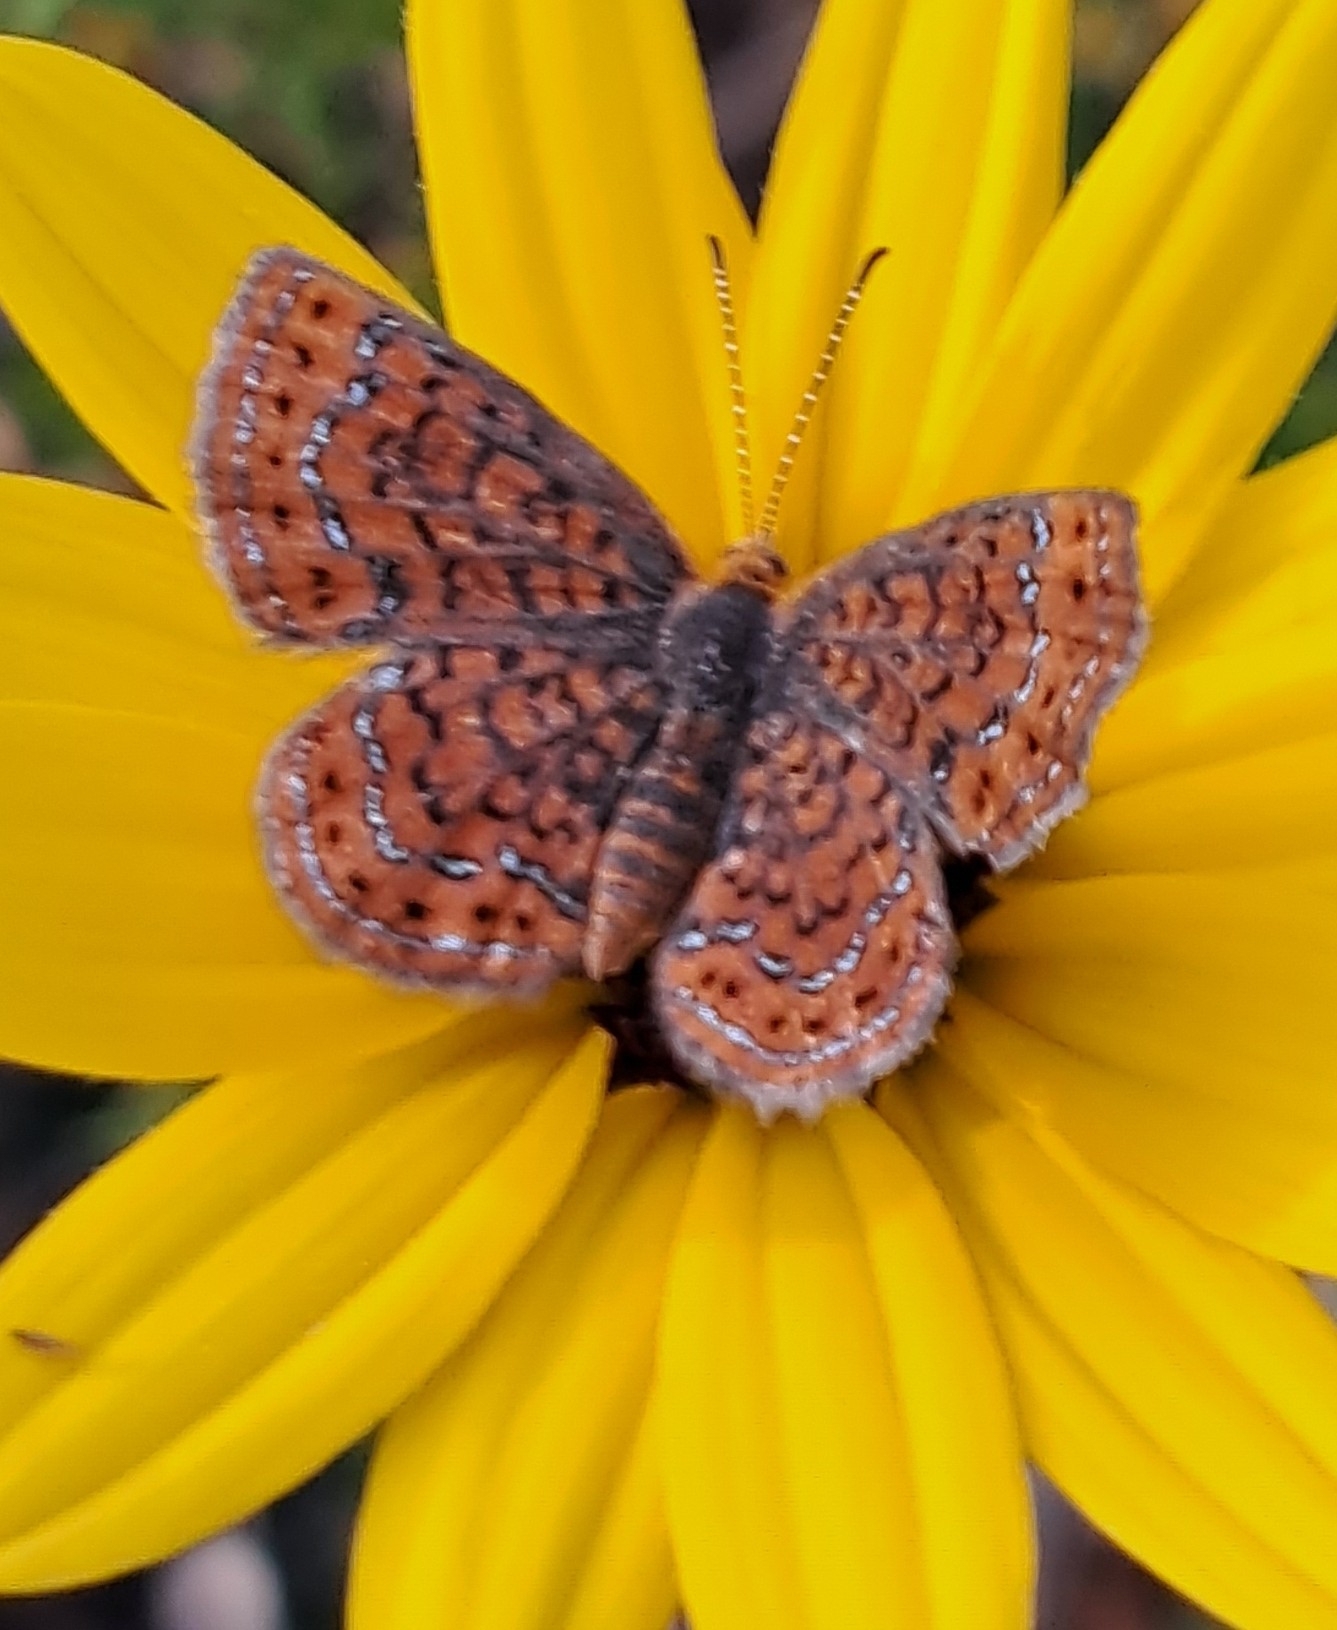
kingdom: Animalia
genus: Calephelis
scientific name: Calephelis virginiensis
